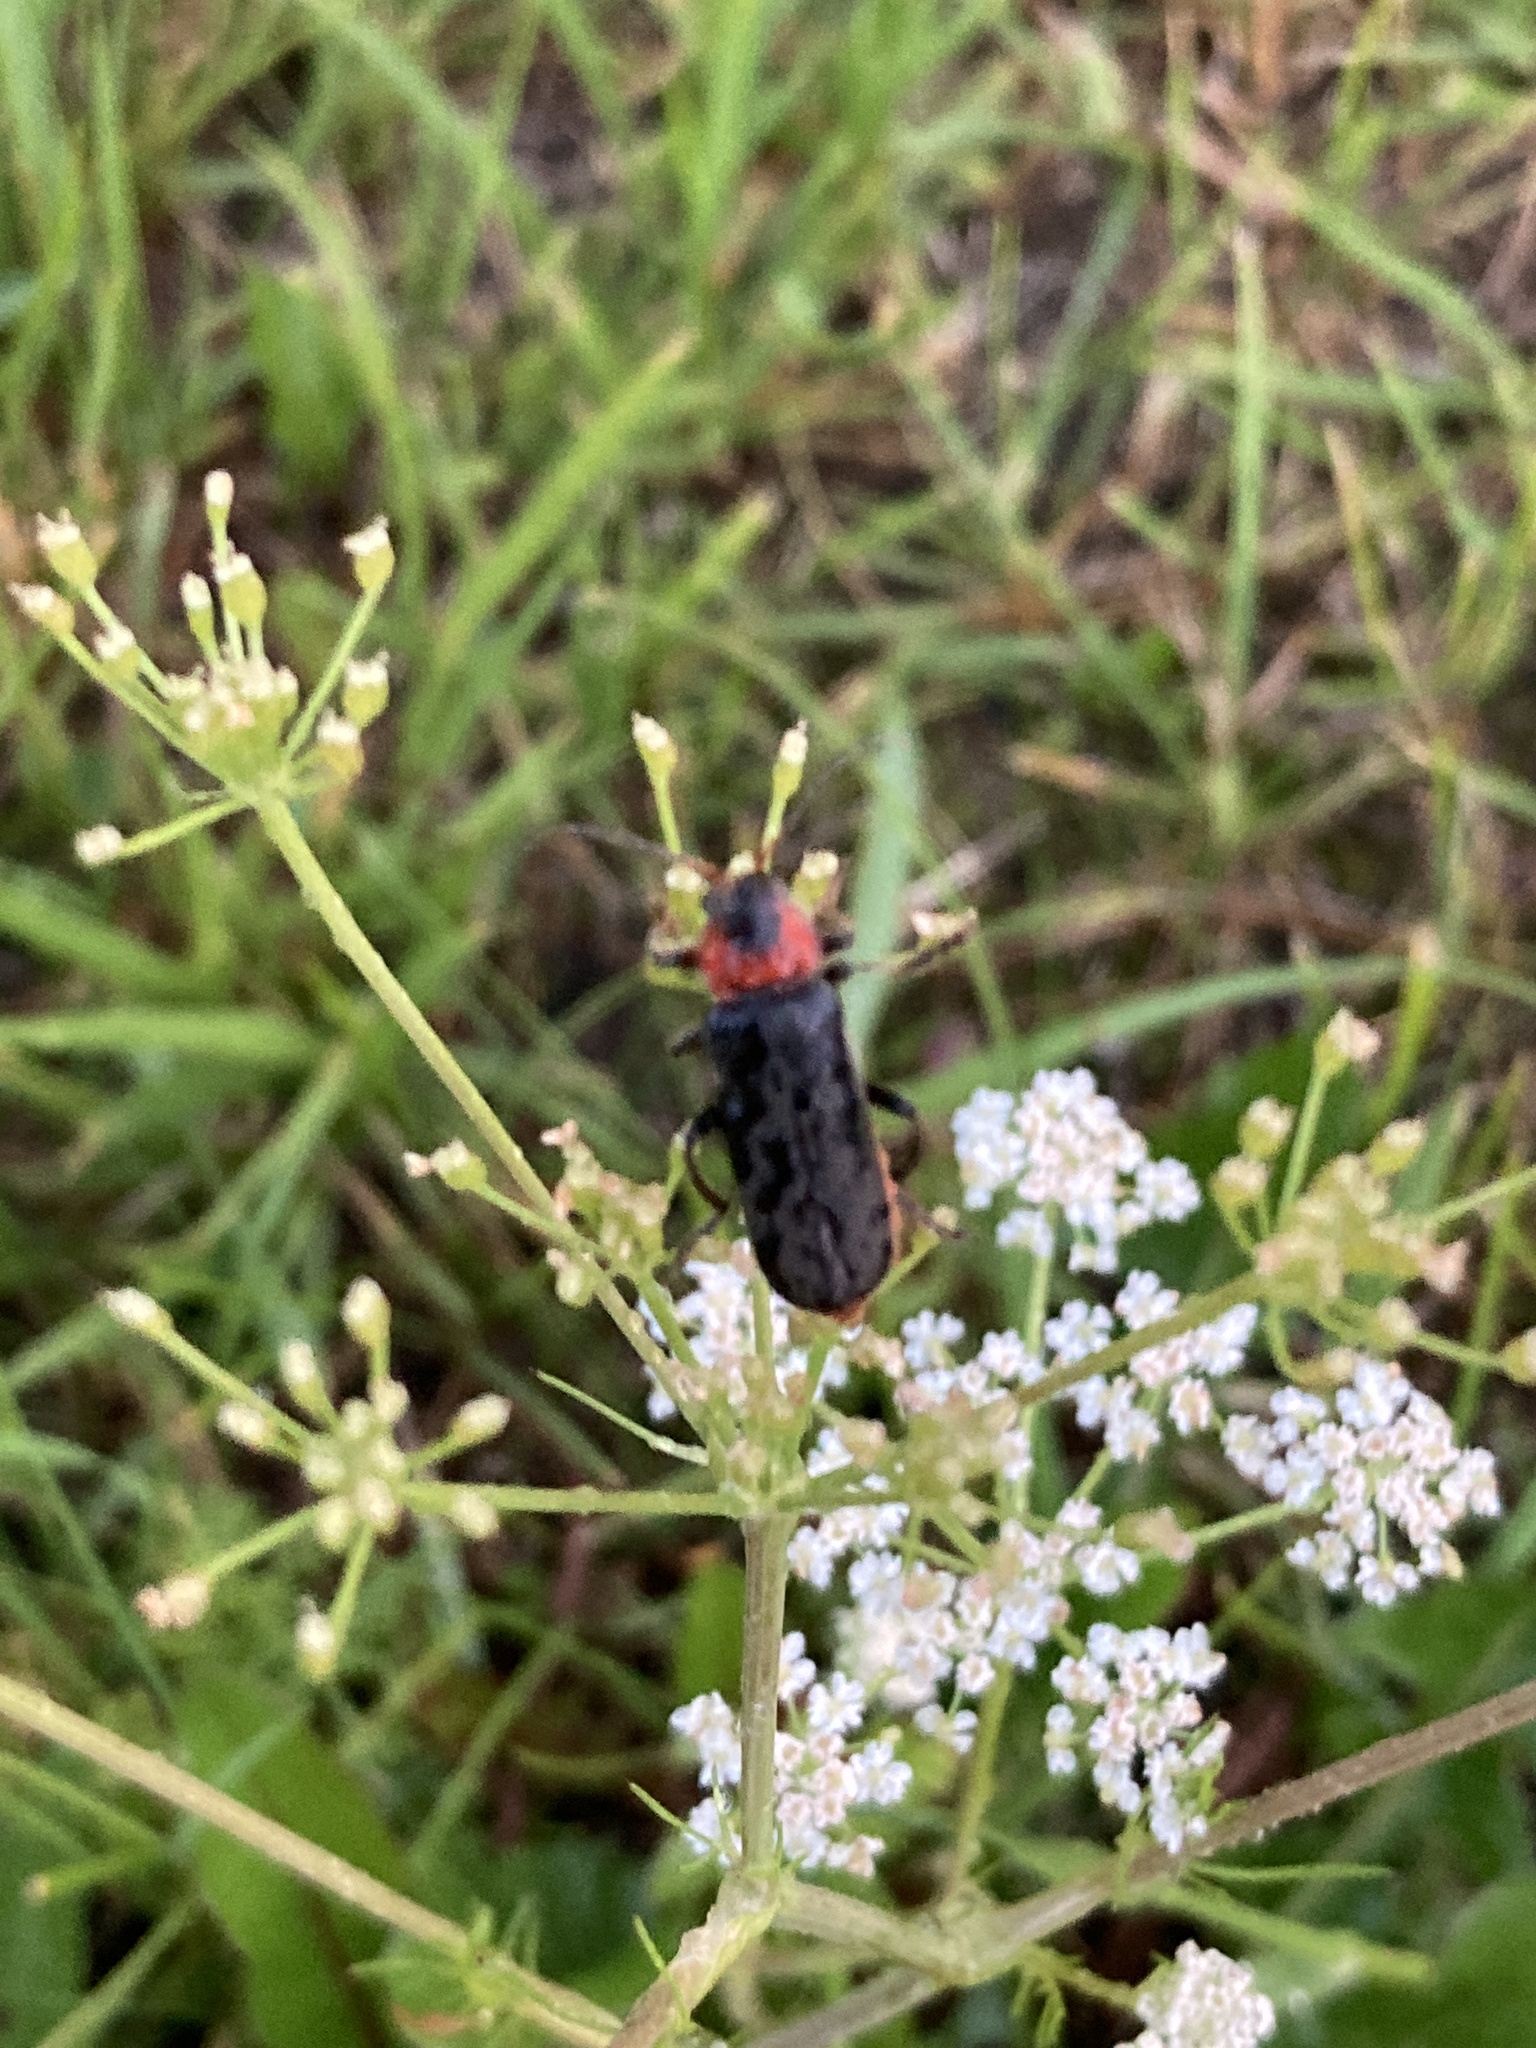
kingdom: Animalia
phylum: Arthropoda
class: Insecta
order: Coleoptera
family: Cantharidae
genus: Cantharis
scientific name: Cantharis fusca
